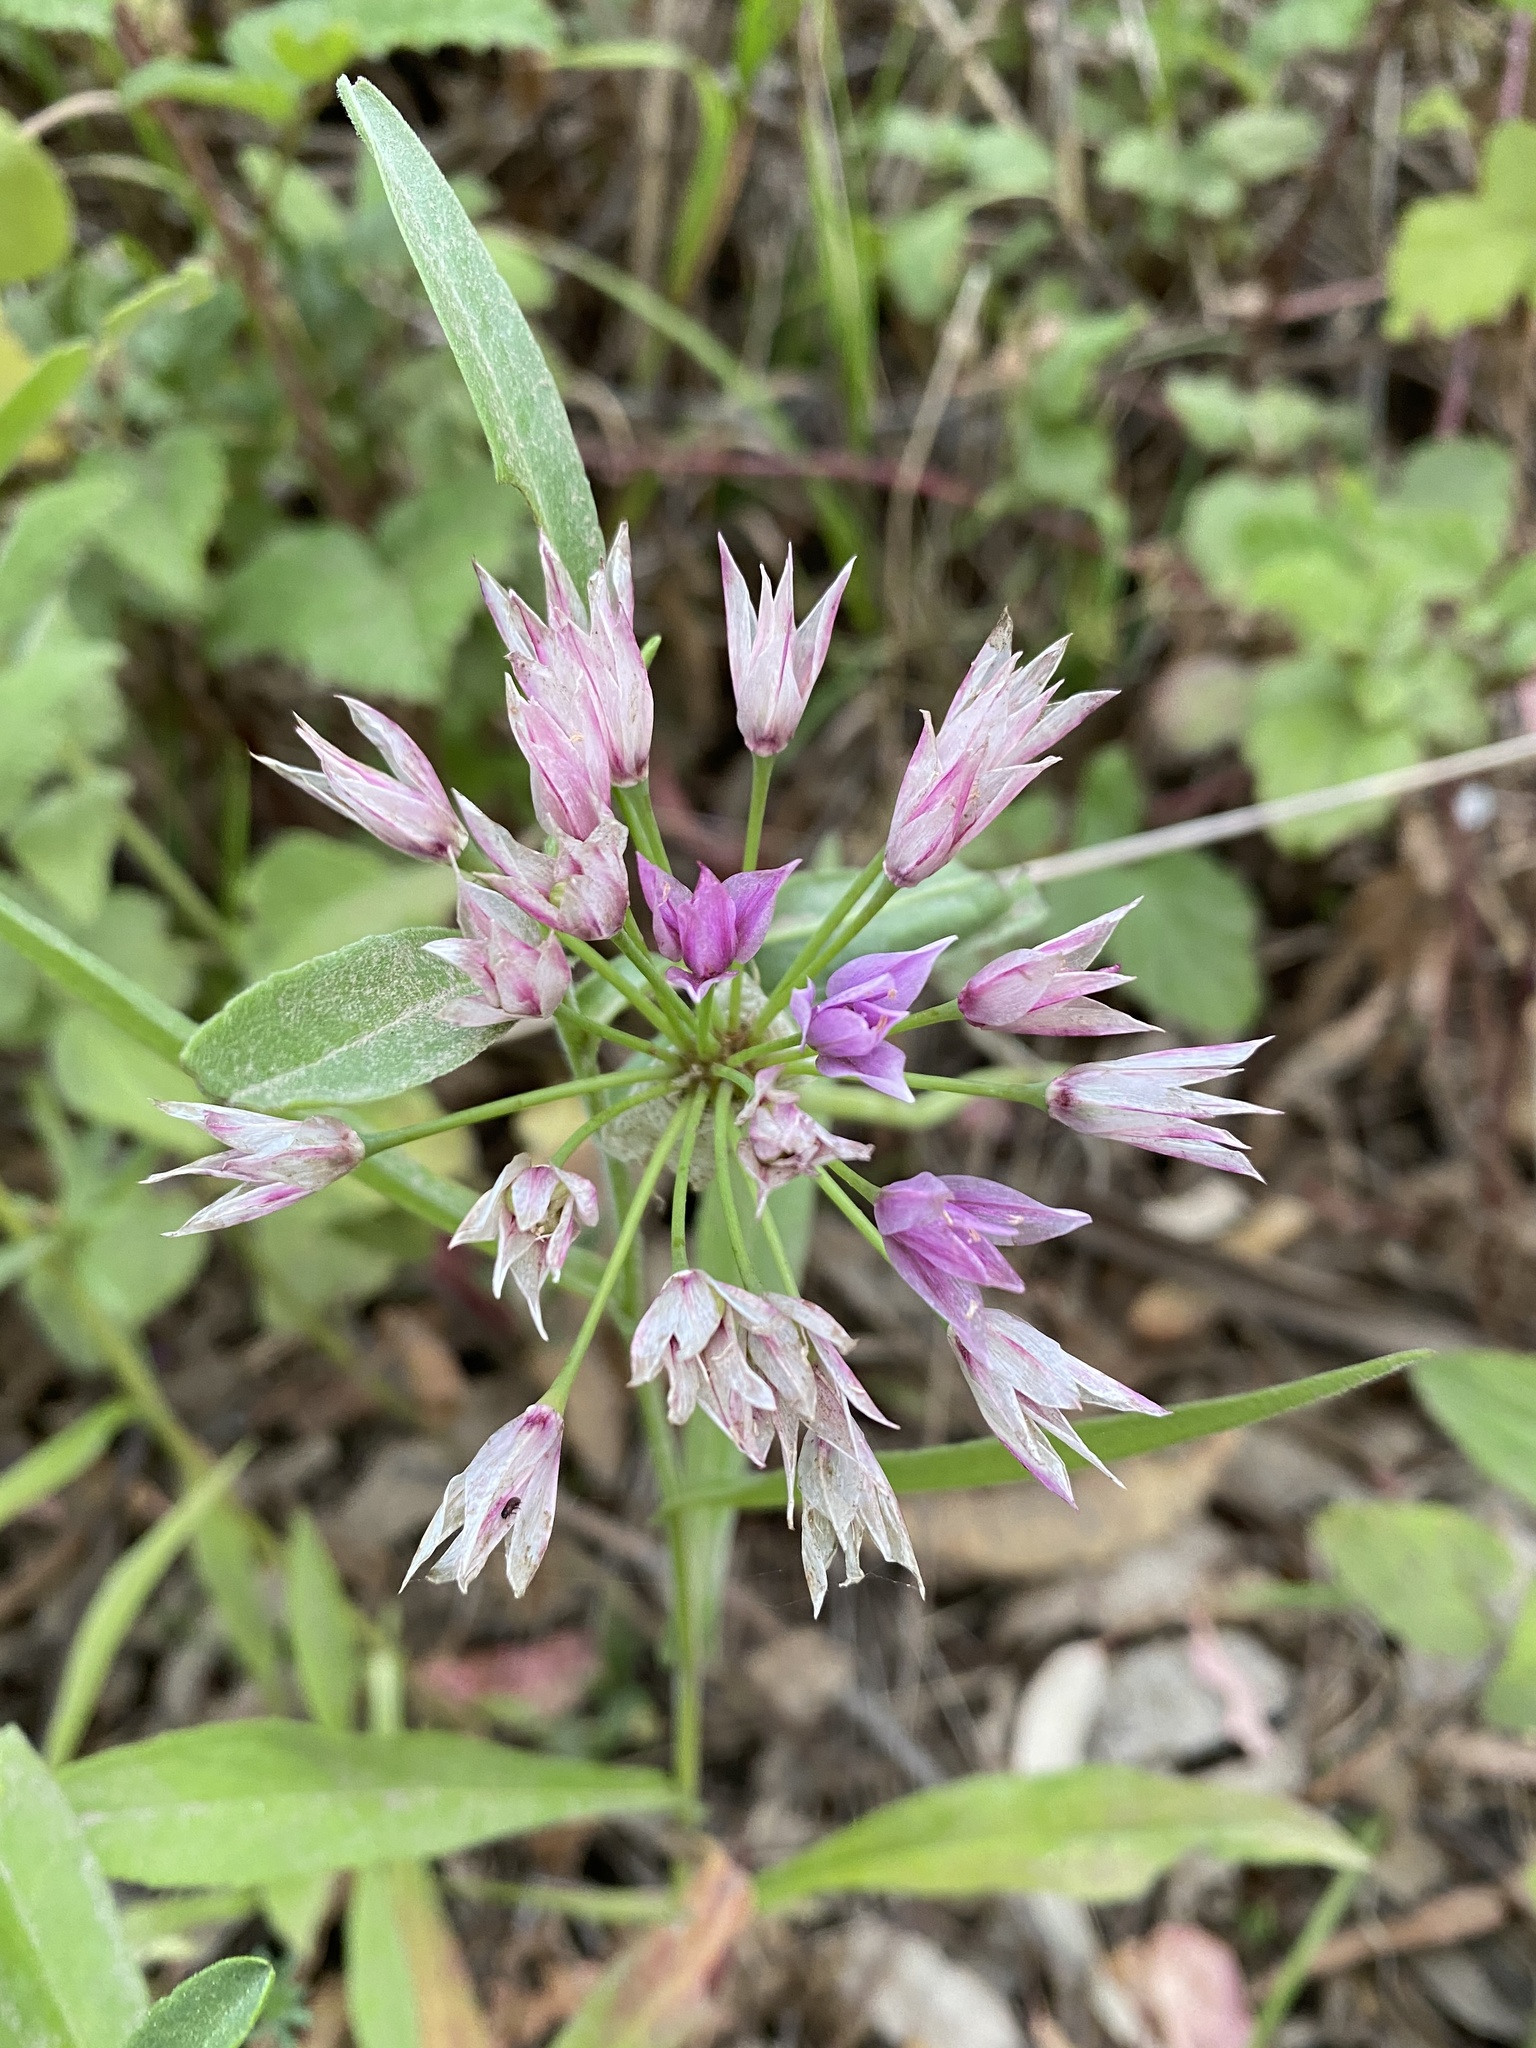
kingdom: Plantae
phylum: Tracheophyta
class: Liliopsida
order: Asparagales
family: Amaryllidaceae
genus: Allium
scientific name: Allium unifolium
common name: American garlic
